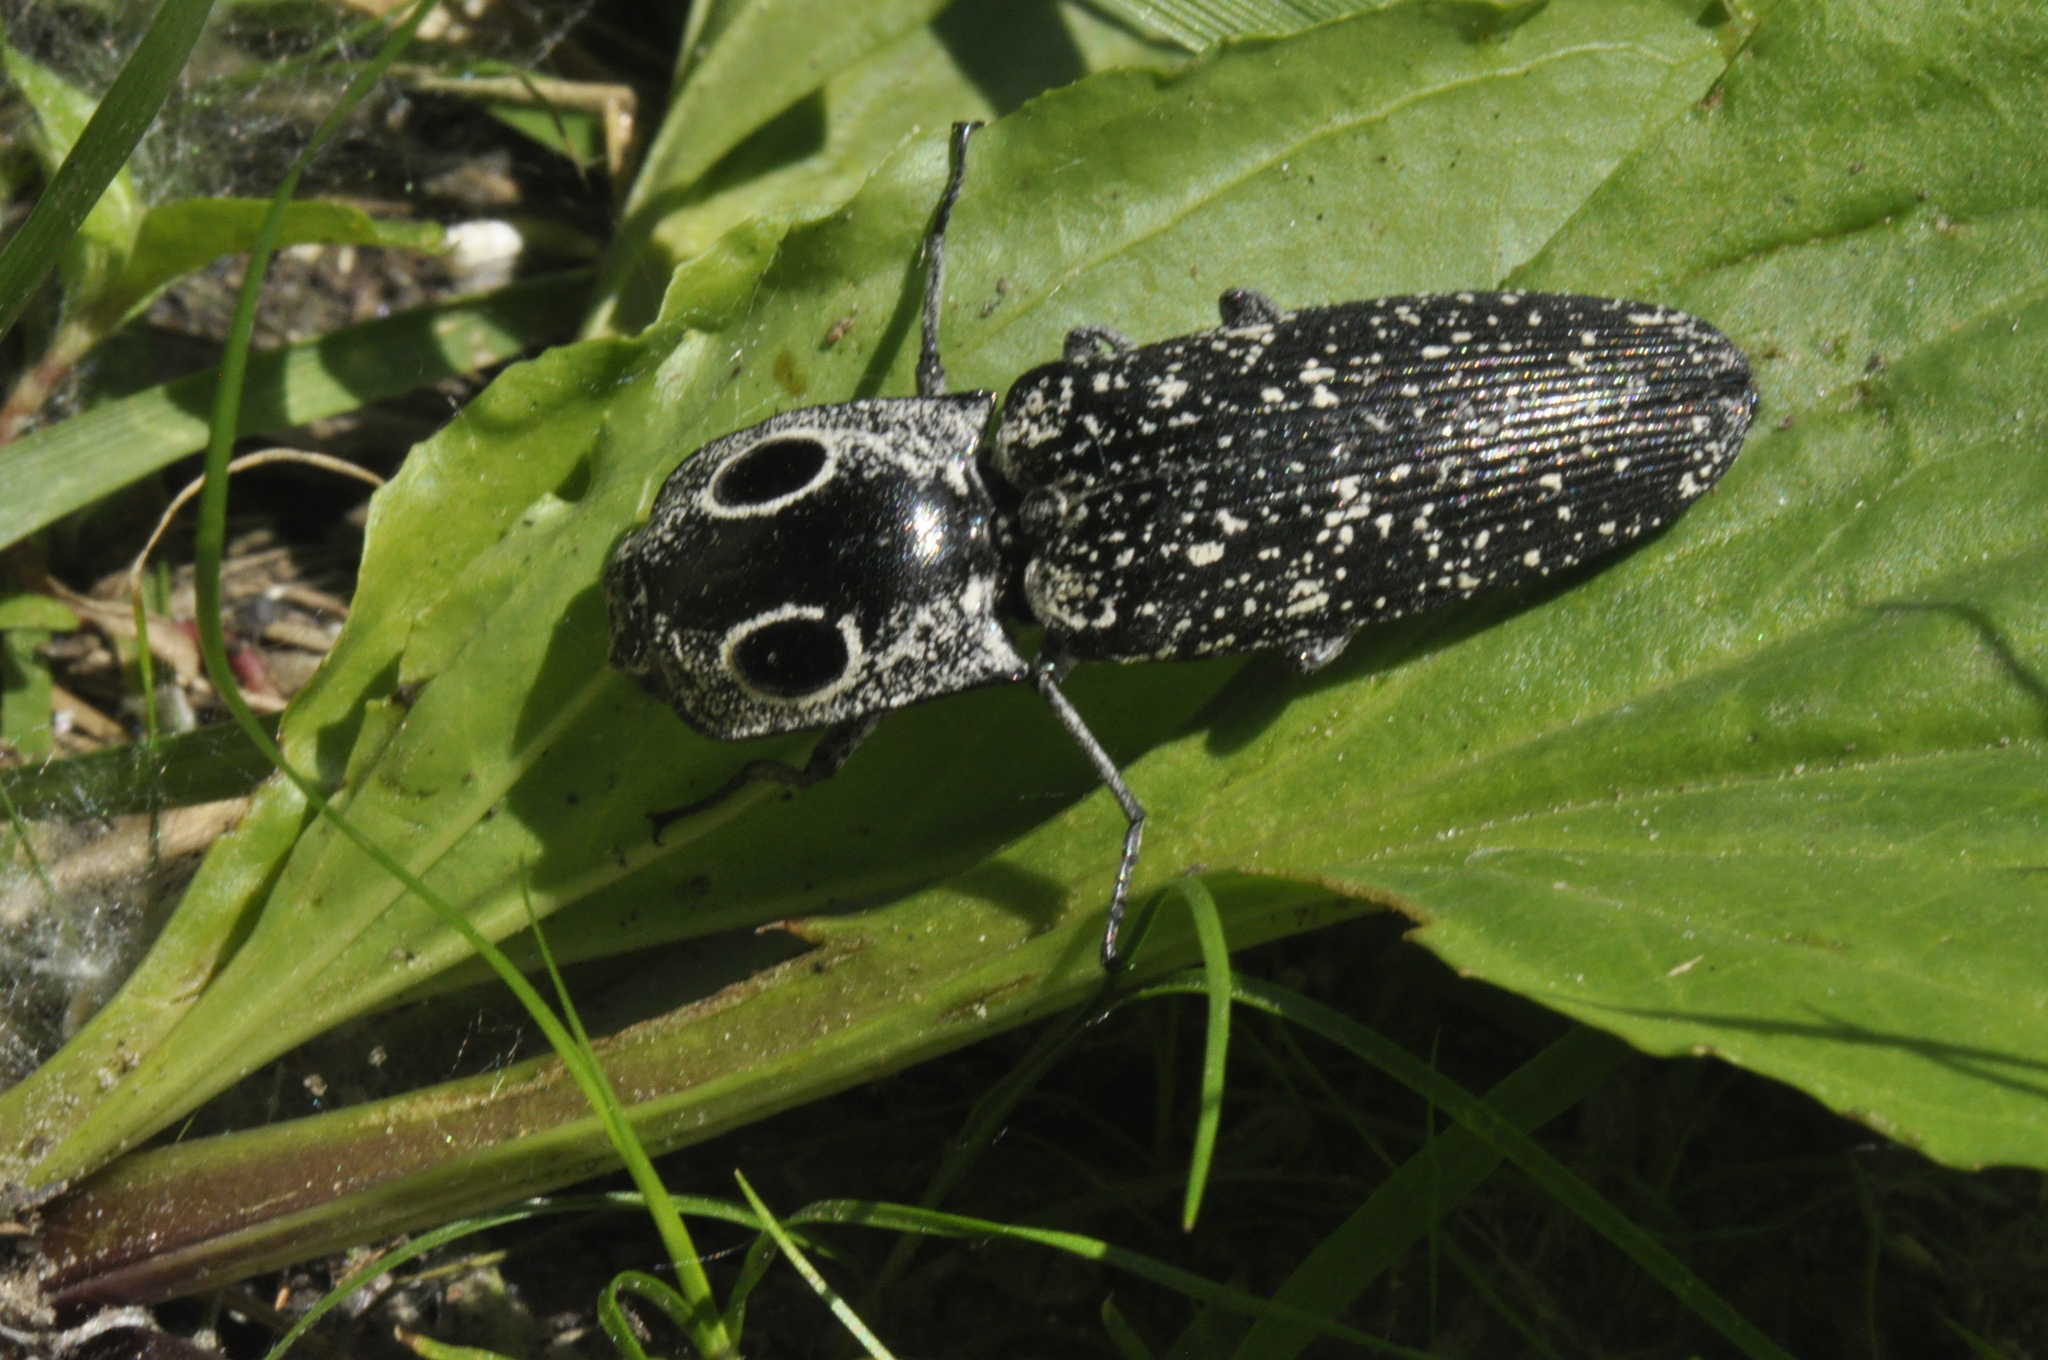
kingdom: Animalia
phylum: Arthropoda
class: Insecta
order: Coleoptera
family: Elateridae
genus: Alaus
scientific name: Alaus oculatus
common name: Eastern eyed click beetle
